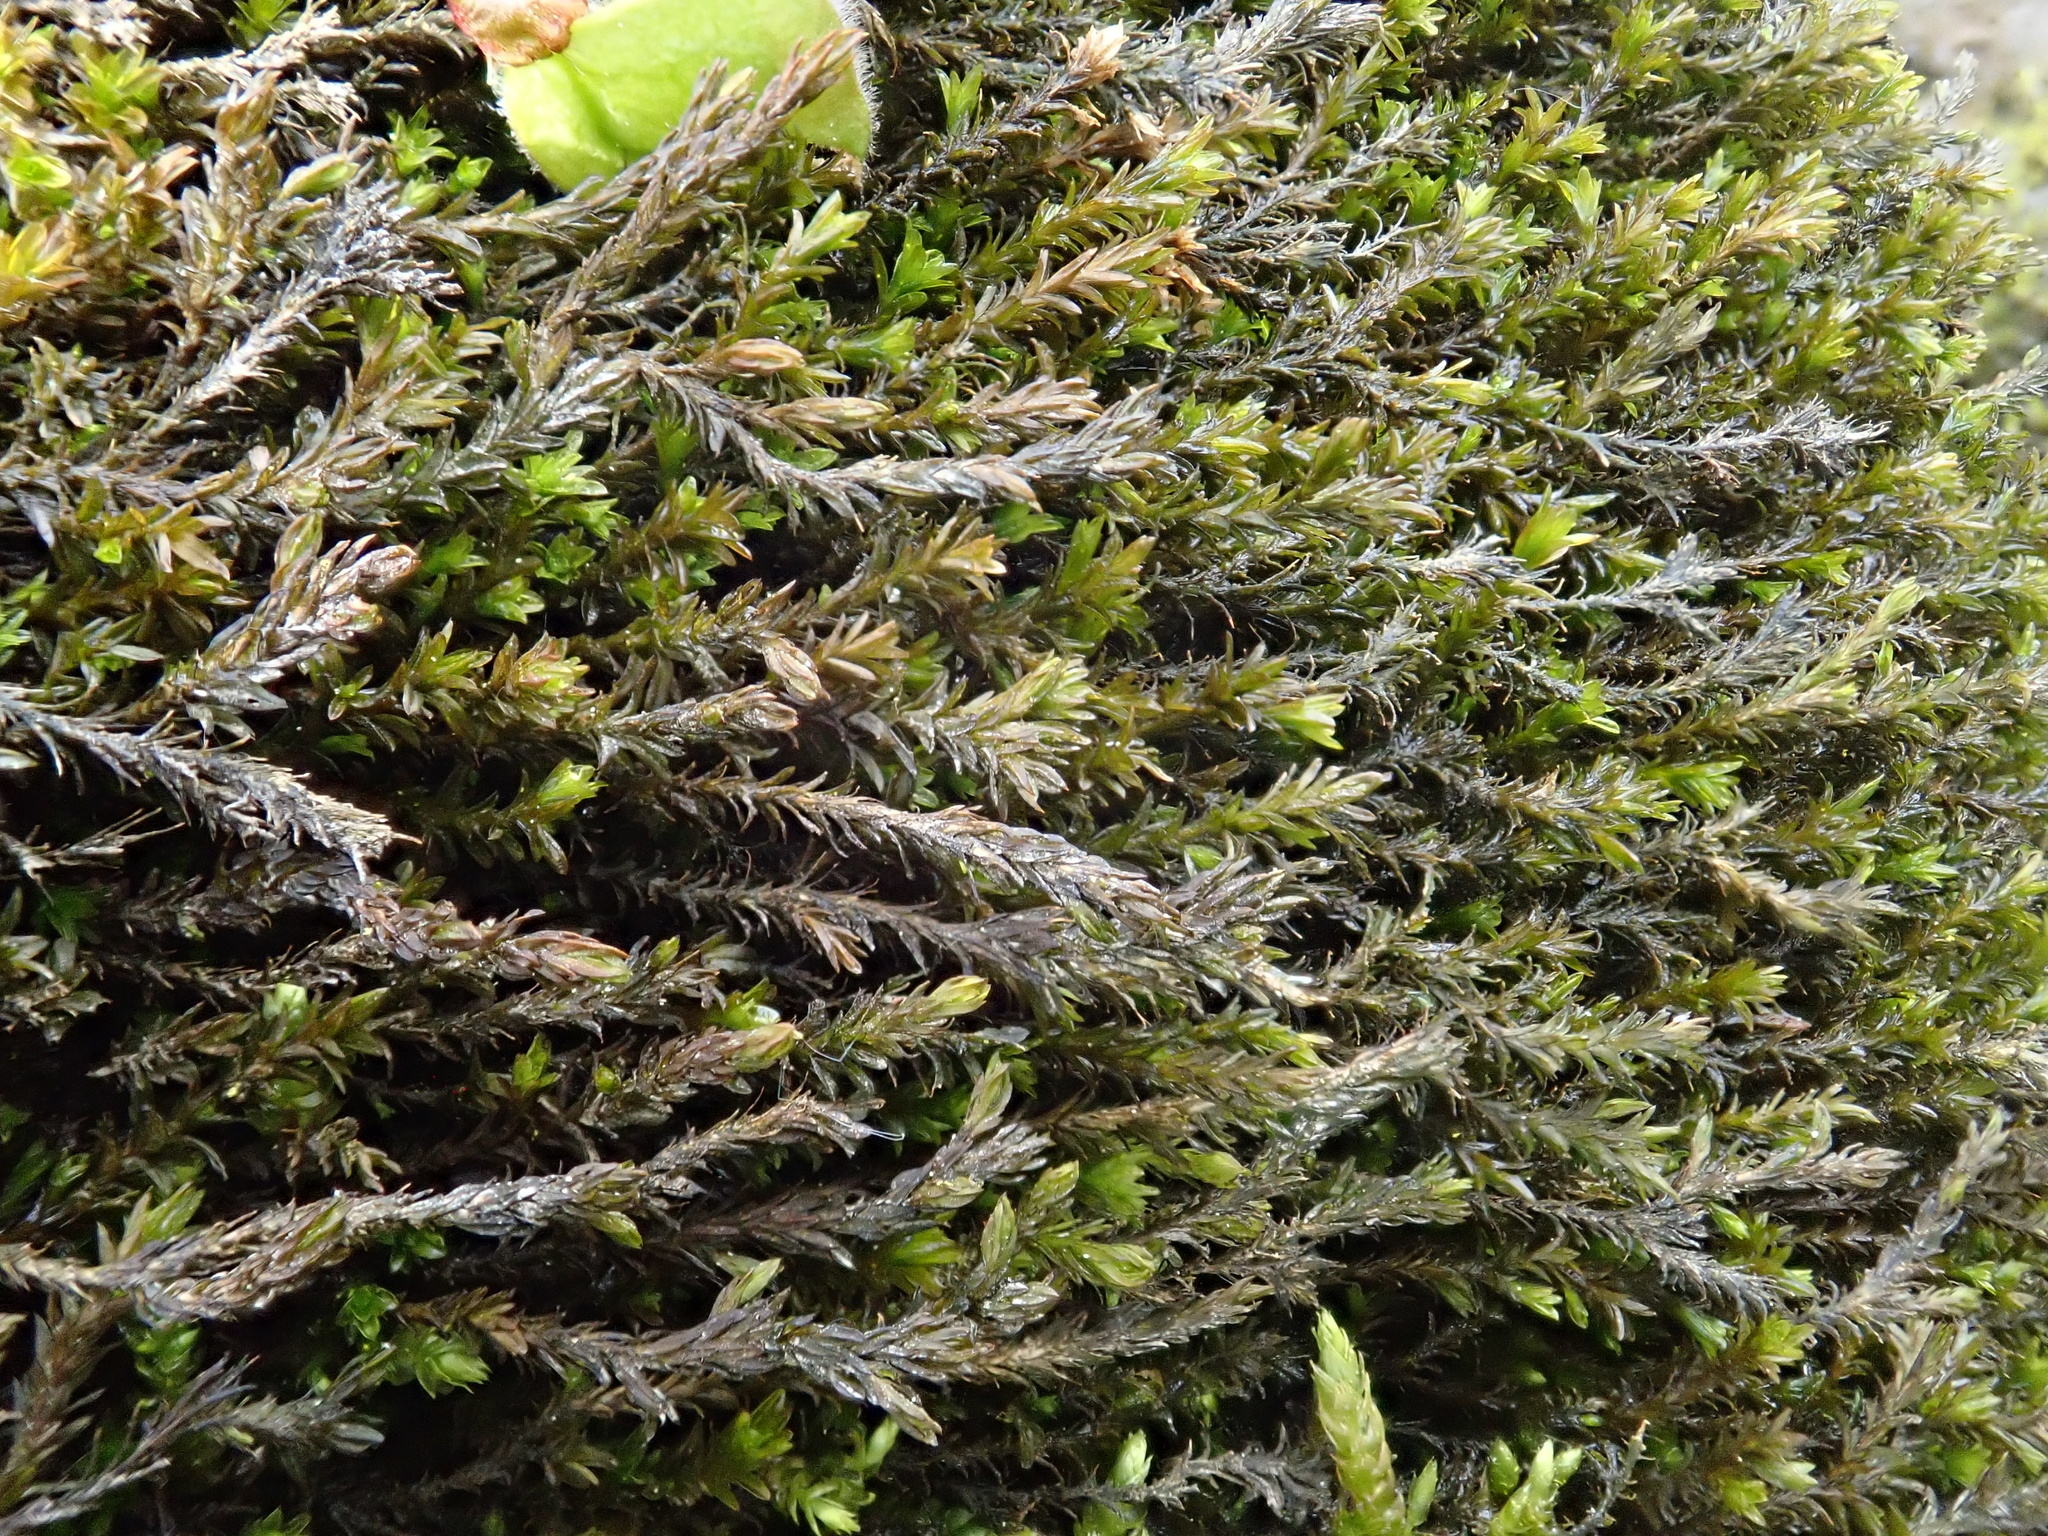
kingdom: Plantae
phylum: Bryophyta
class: Bryopsida
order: Pottiales
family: Pottiaceae
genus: Cinclidotus
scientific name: Cinclidotus fontinaloides
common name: Smaller lattice-moss
